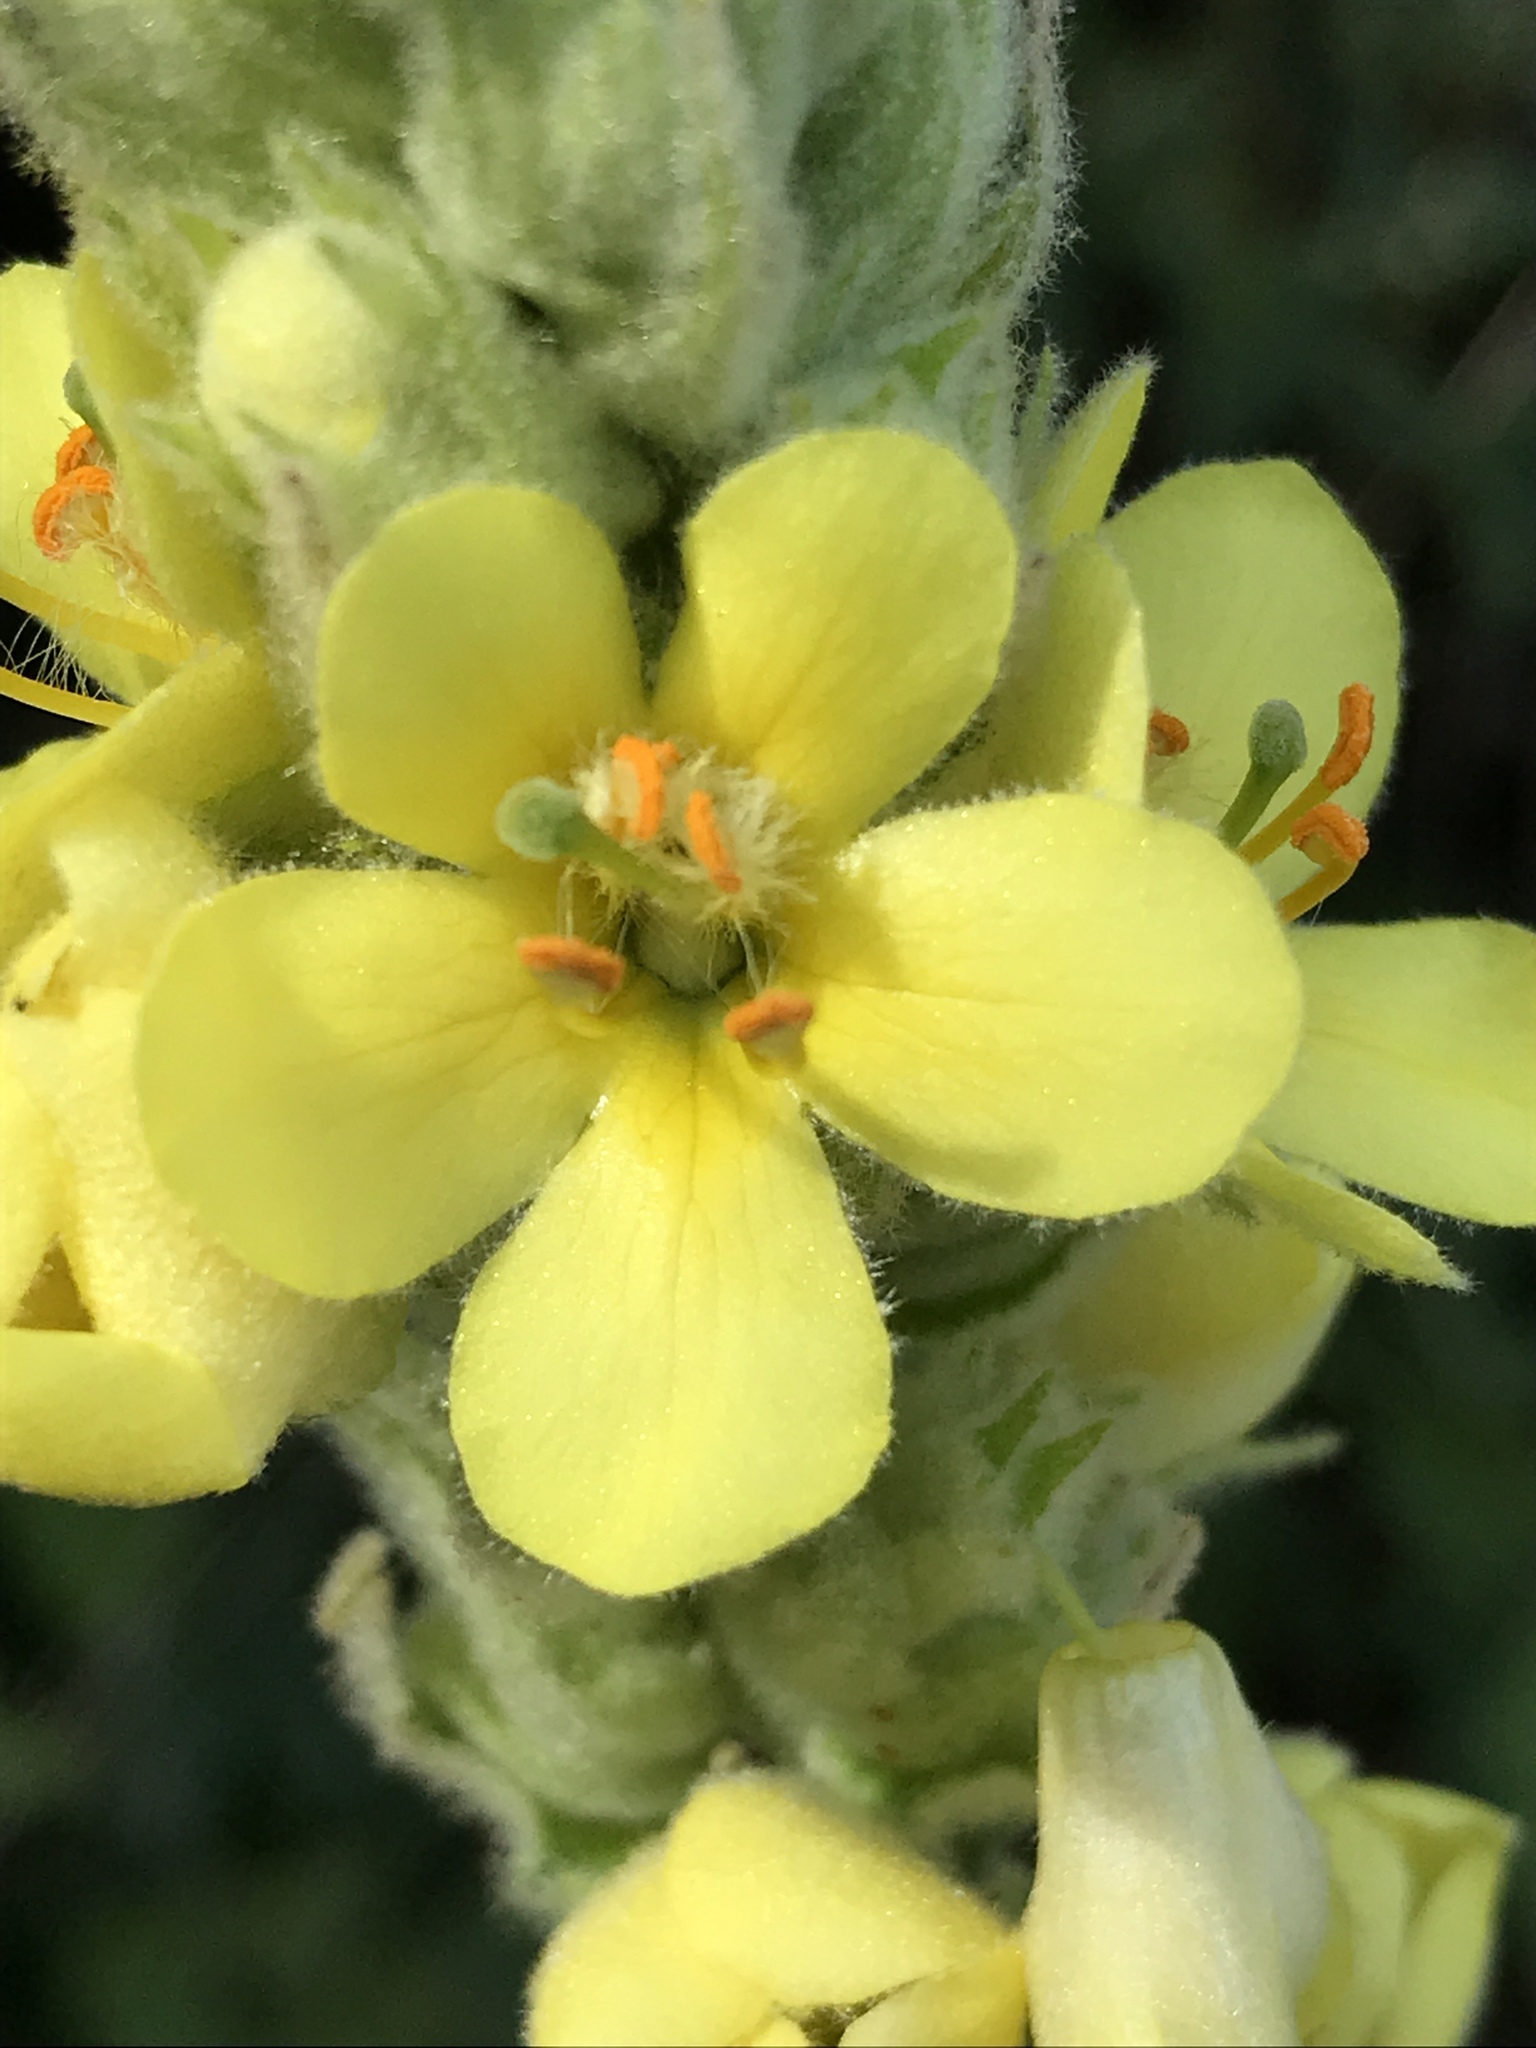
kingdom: Plantae
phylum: Tracheophyta
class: Magnoliopsida
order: Lamiales
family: Scrophulariaceae
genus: Verbascum
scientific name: Verbascum thapsus
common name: Common mullein
